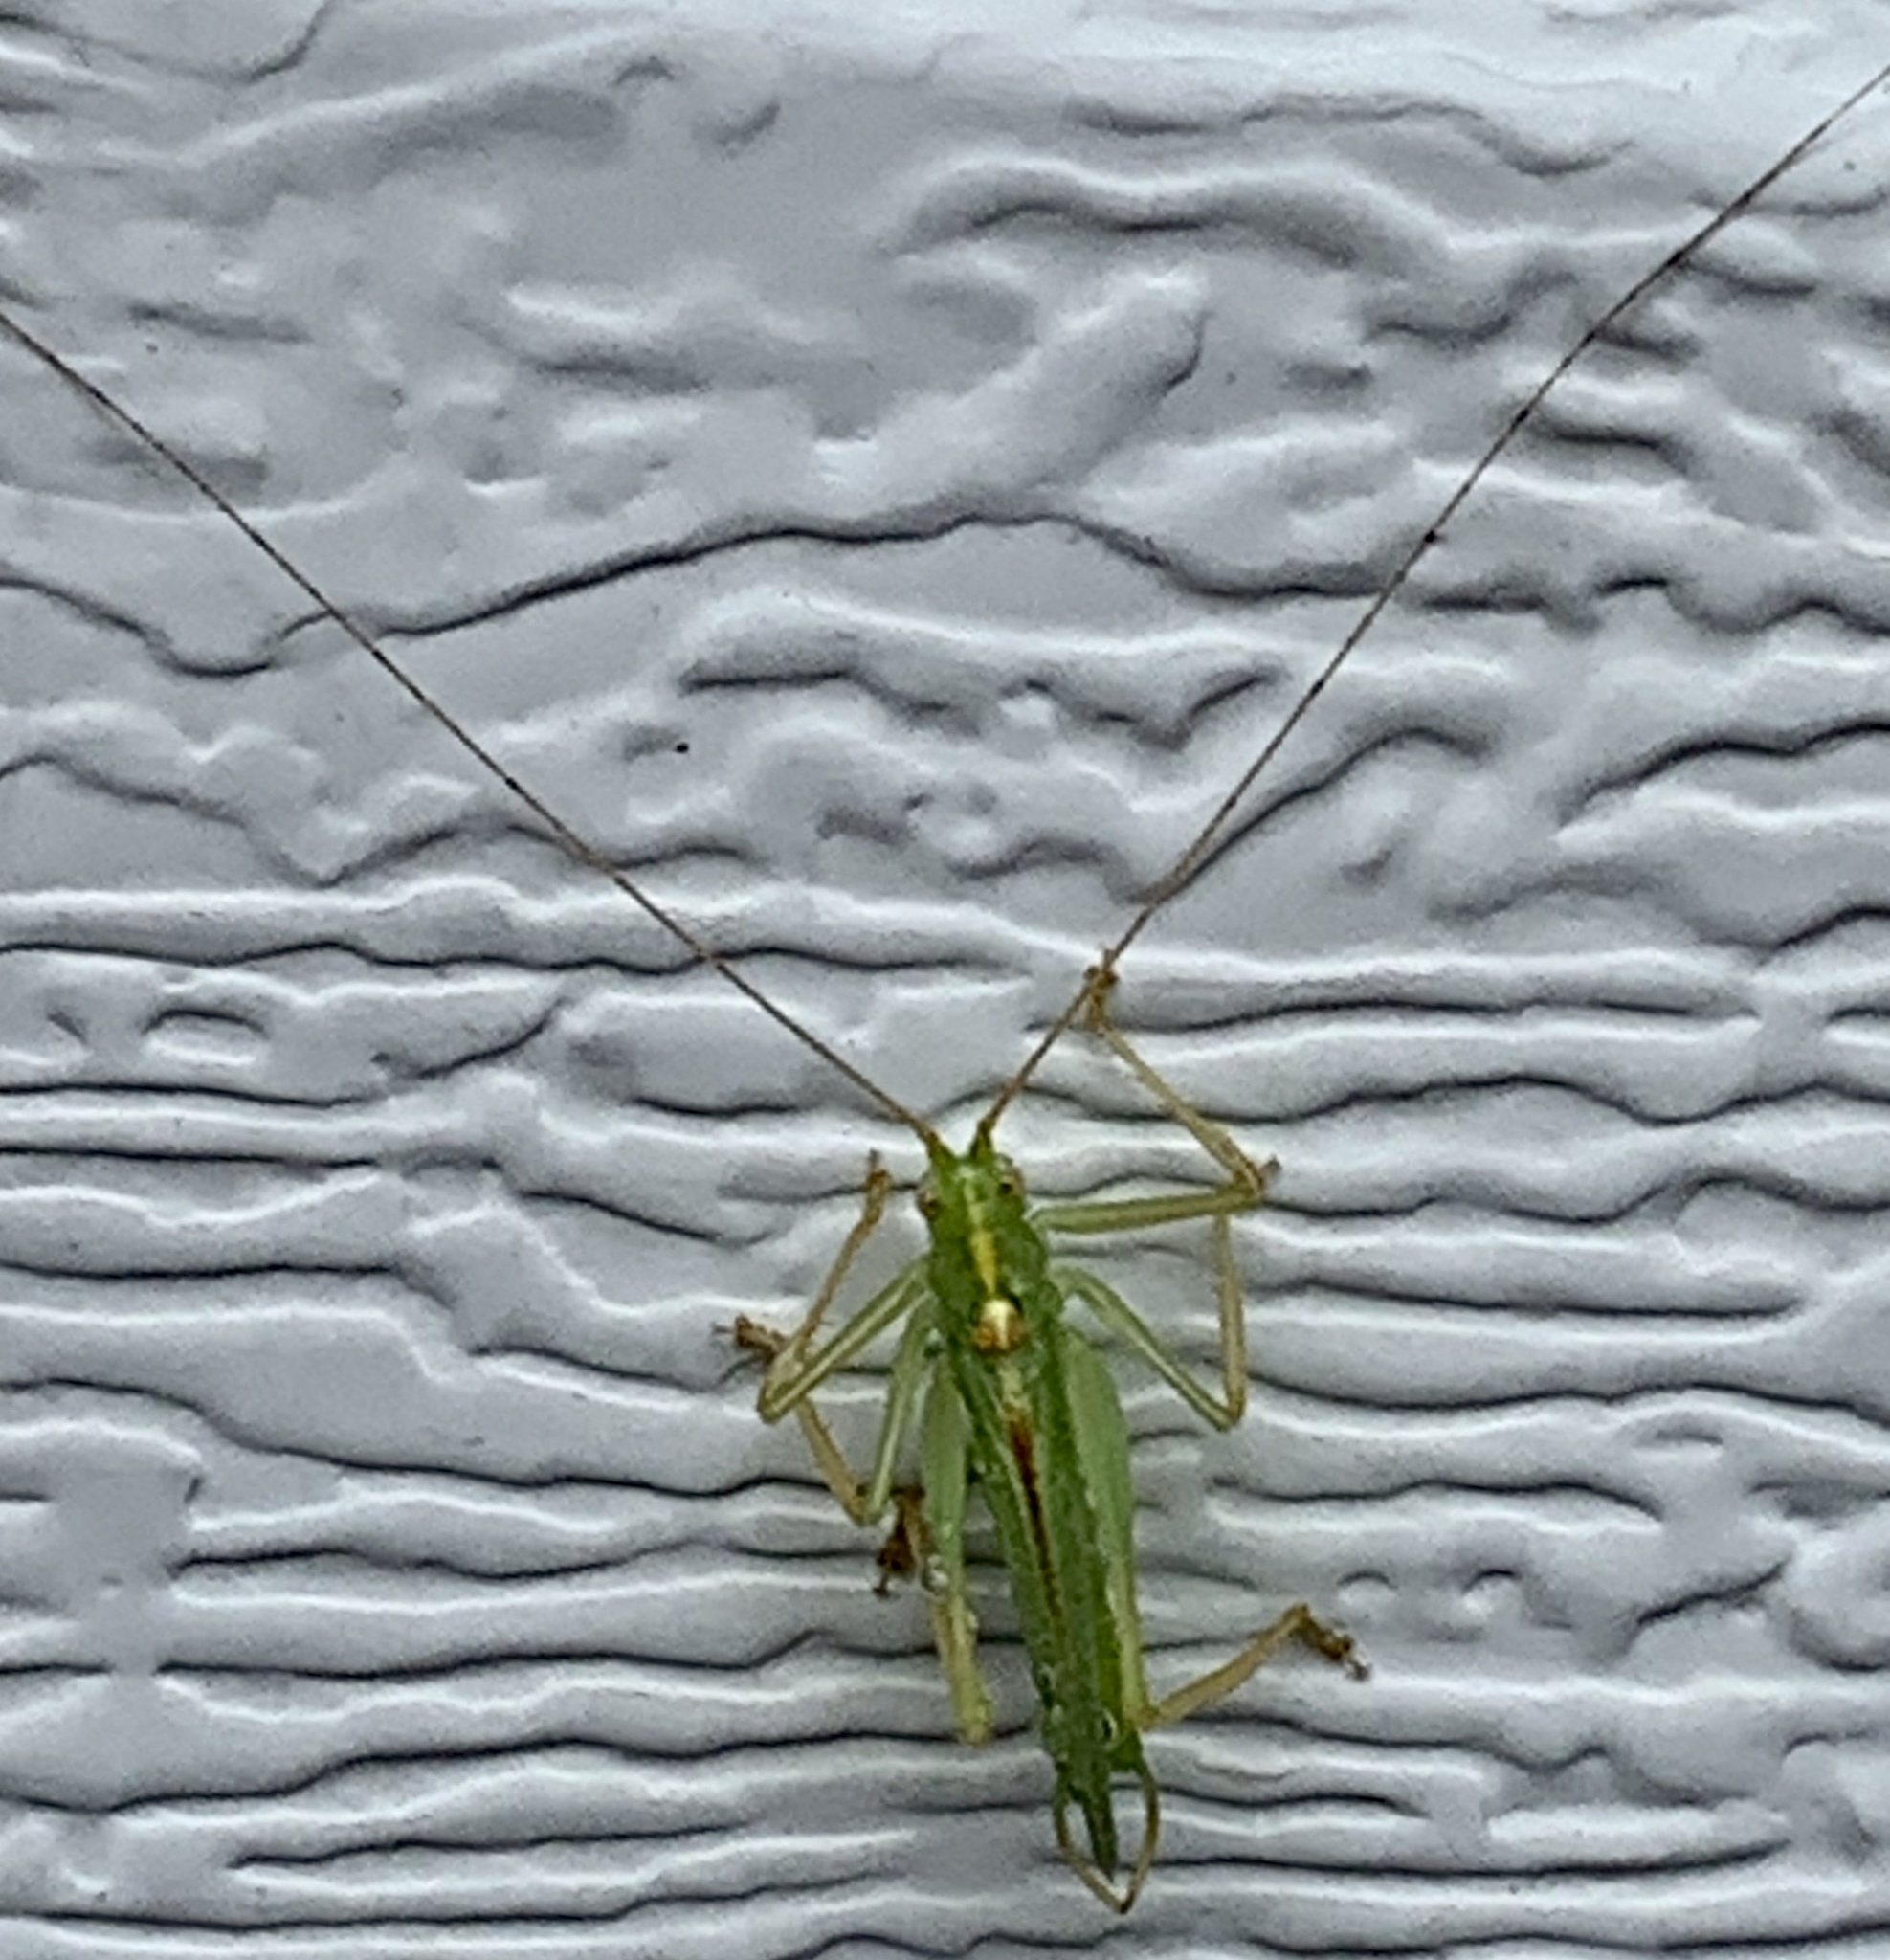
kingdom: Animalia
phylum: Arthropoda
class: Insecta
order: Orthoptera
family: Tettigoniidae
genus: Meconema
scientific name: Meconema thalassinum
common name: Oak bush-cricket
